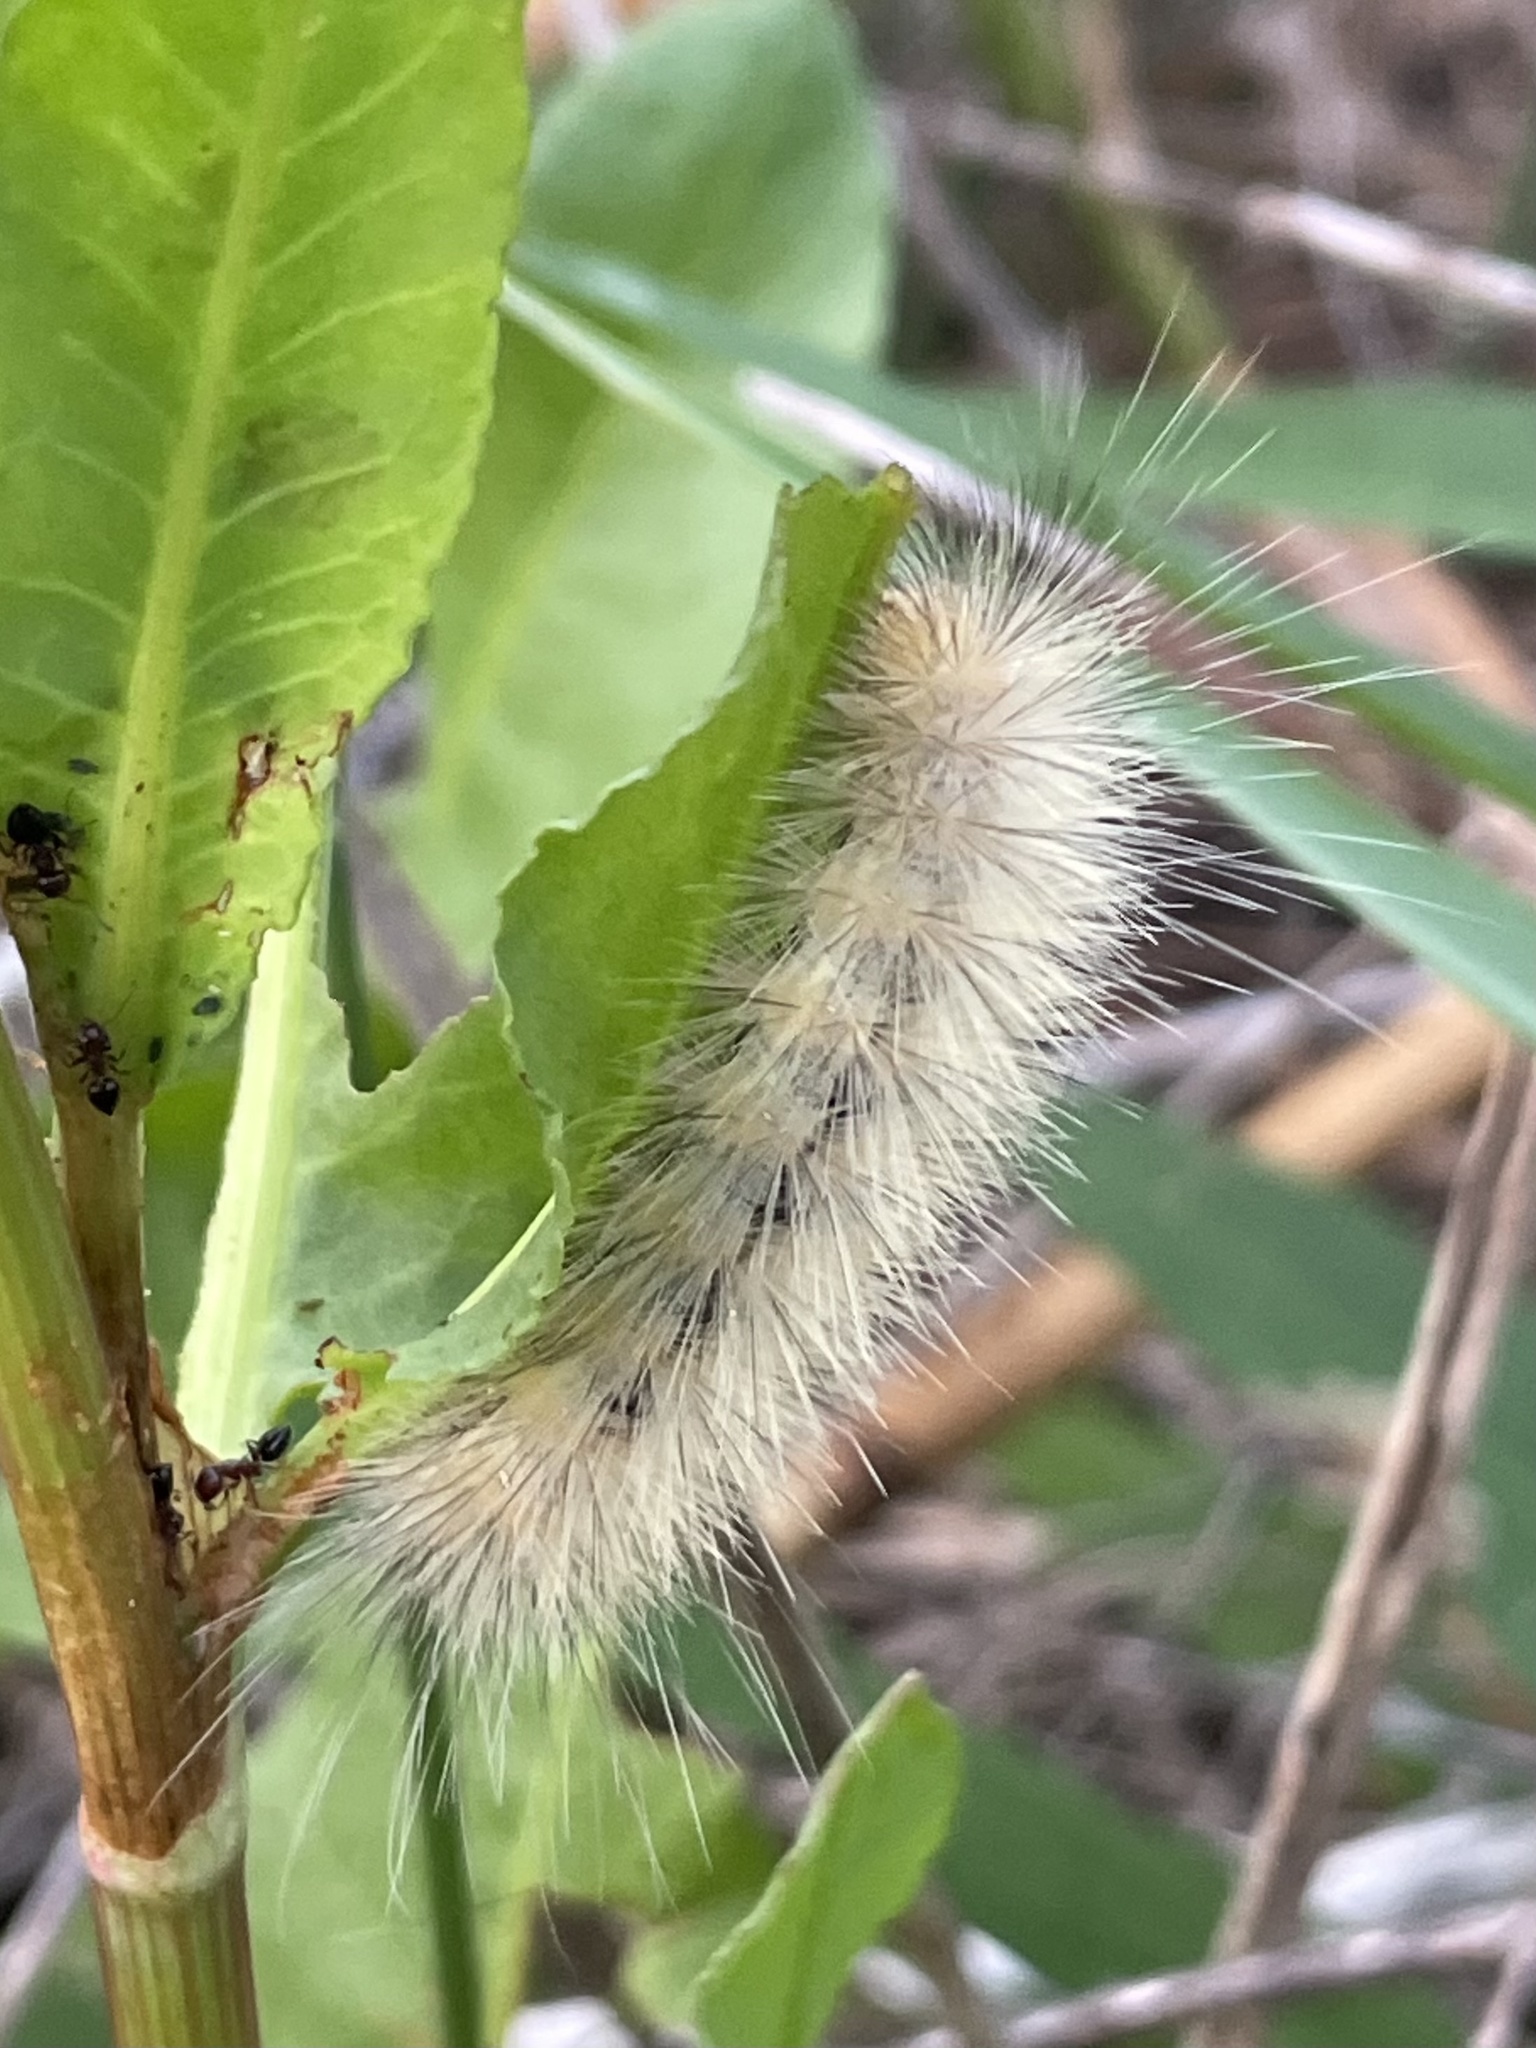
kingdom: Animalia
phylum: Arthropoda
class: Insecta
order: Lepidoptera
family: Erebidae
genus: Spilosoma
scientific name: Spilosoma virginica
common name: Virginia tiger moth
